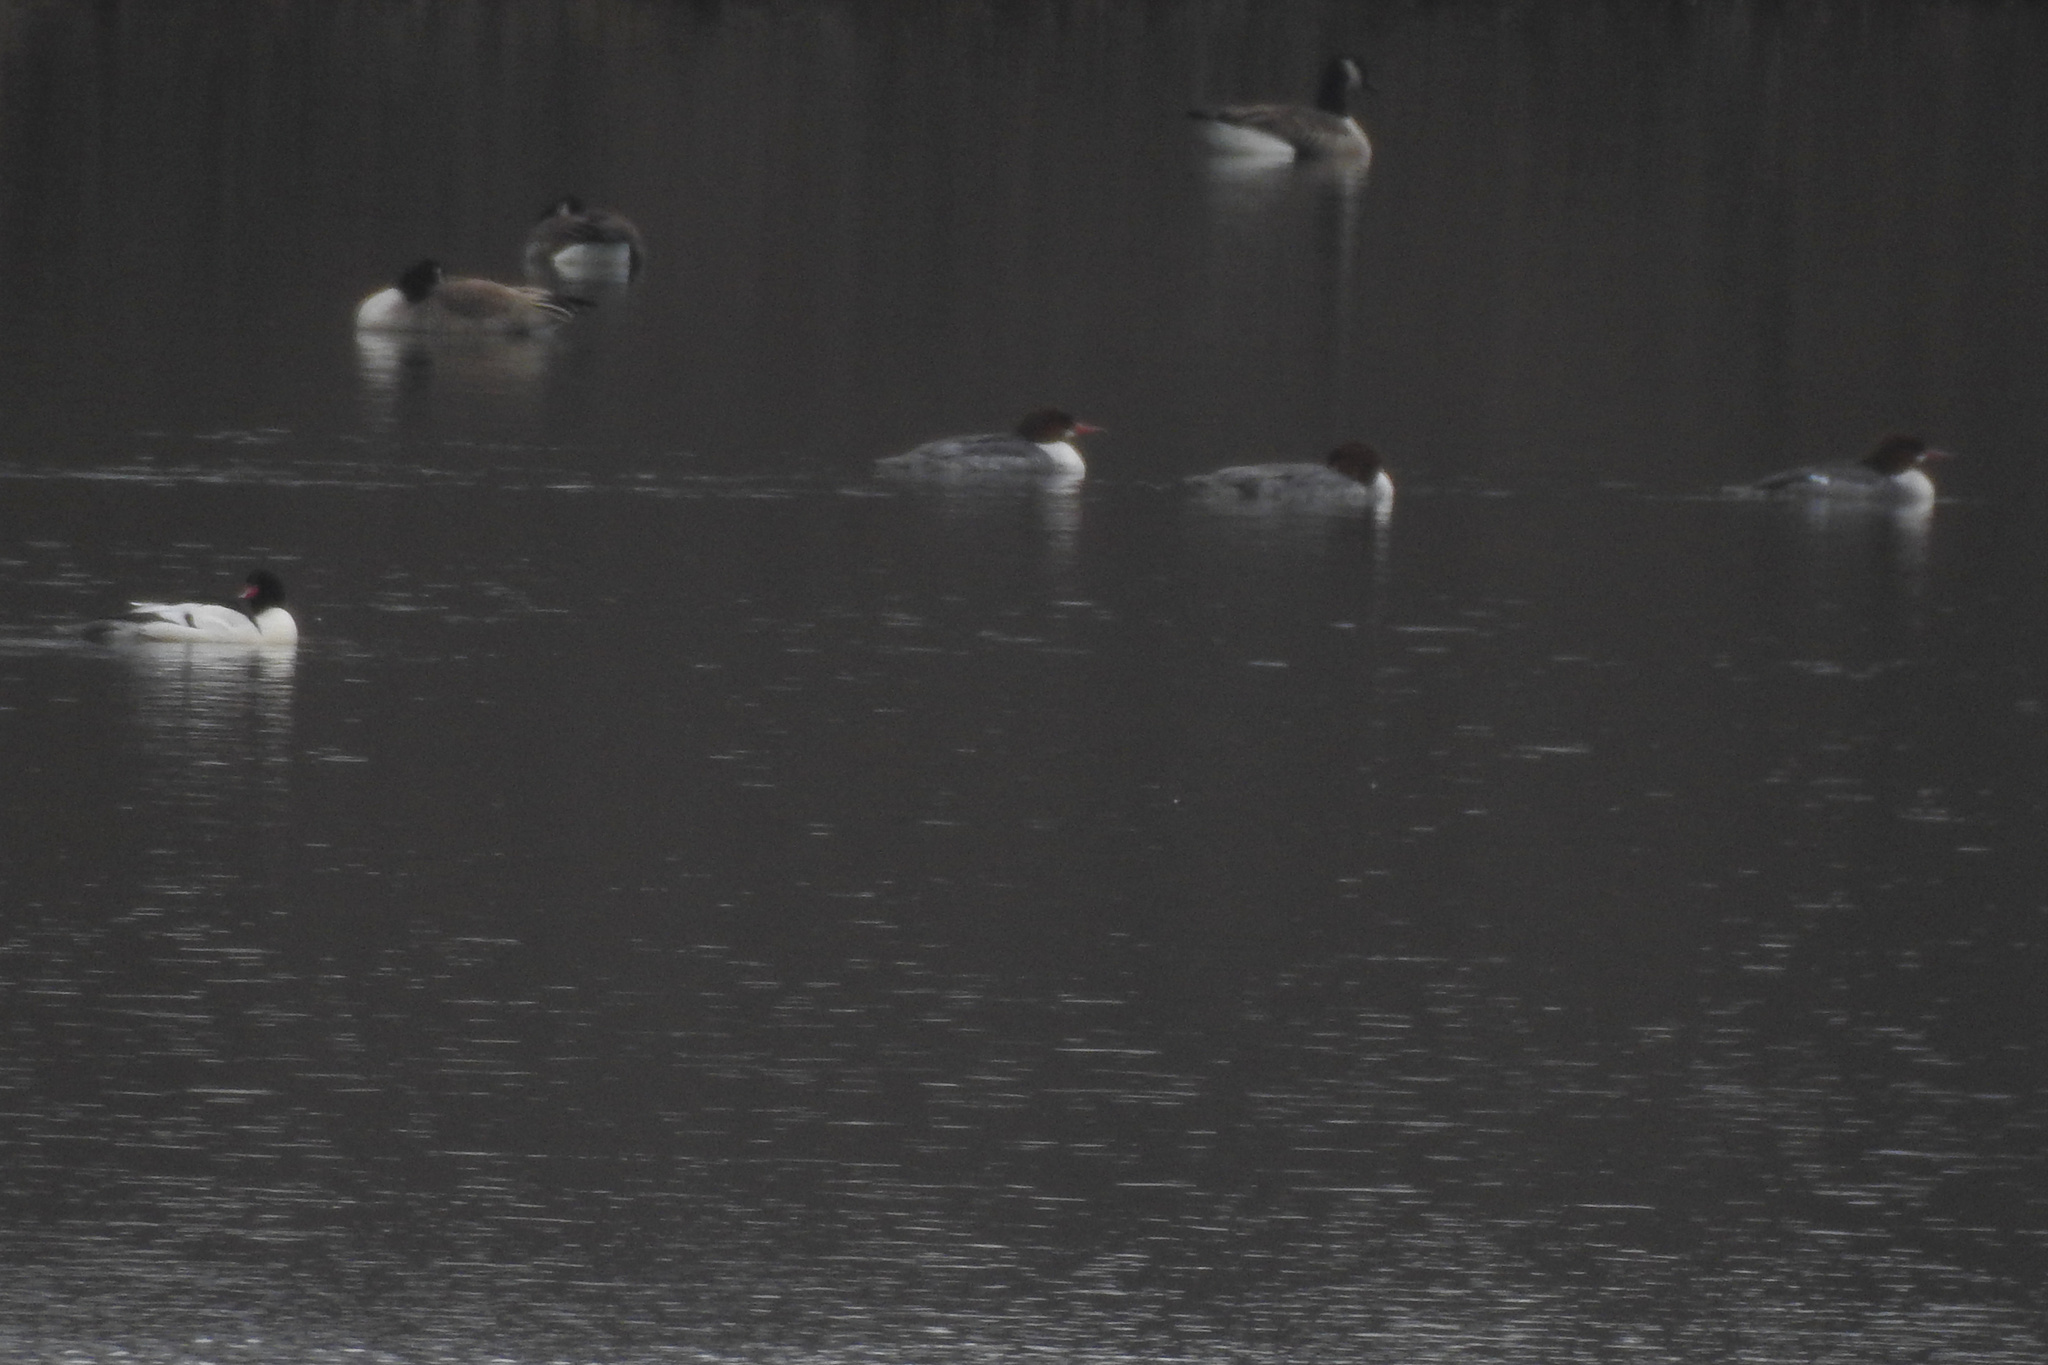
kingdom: Animalia
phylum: Chordata
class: Aves
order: Anseriformes
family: Anatidae
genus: Mergus
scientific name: Mergus merganser
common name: Common merganser
